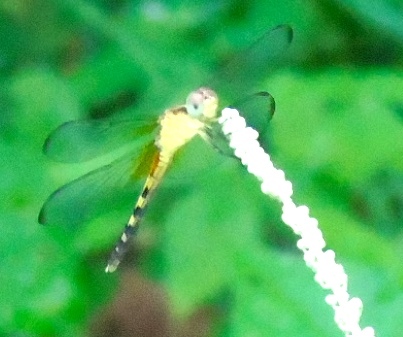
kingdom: Animalia
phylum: Arthropoda
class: Insecta
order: Odonata
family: Libellulidae
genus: Erythrodiplax
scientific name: Erythrodiplax
